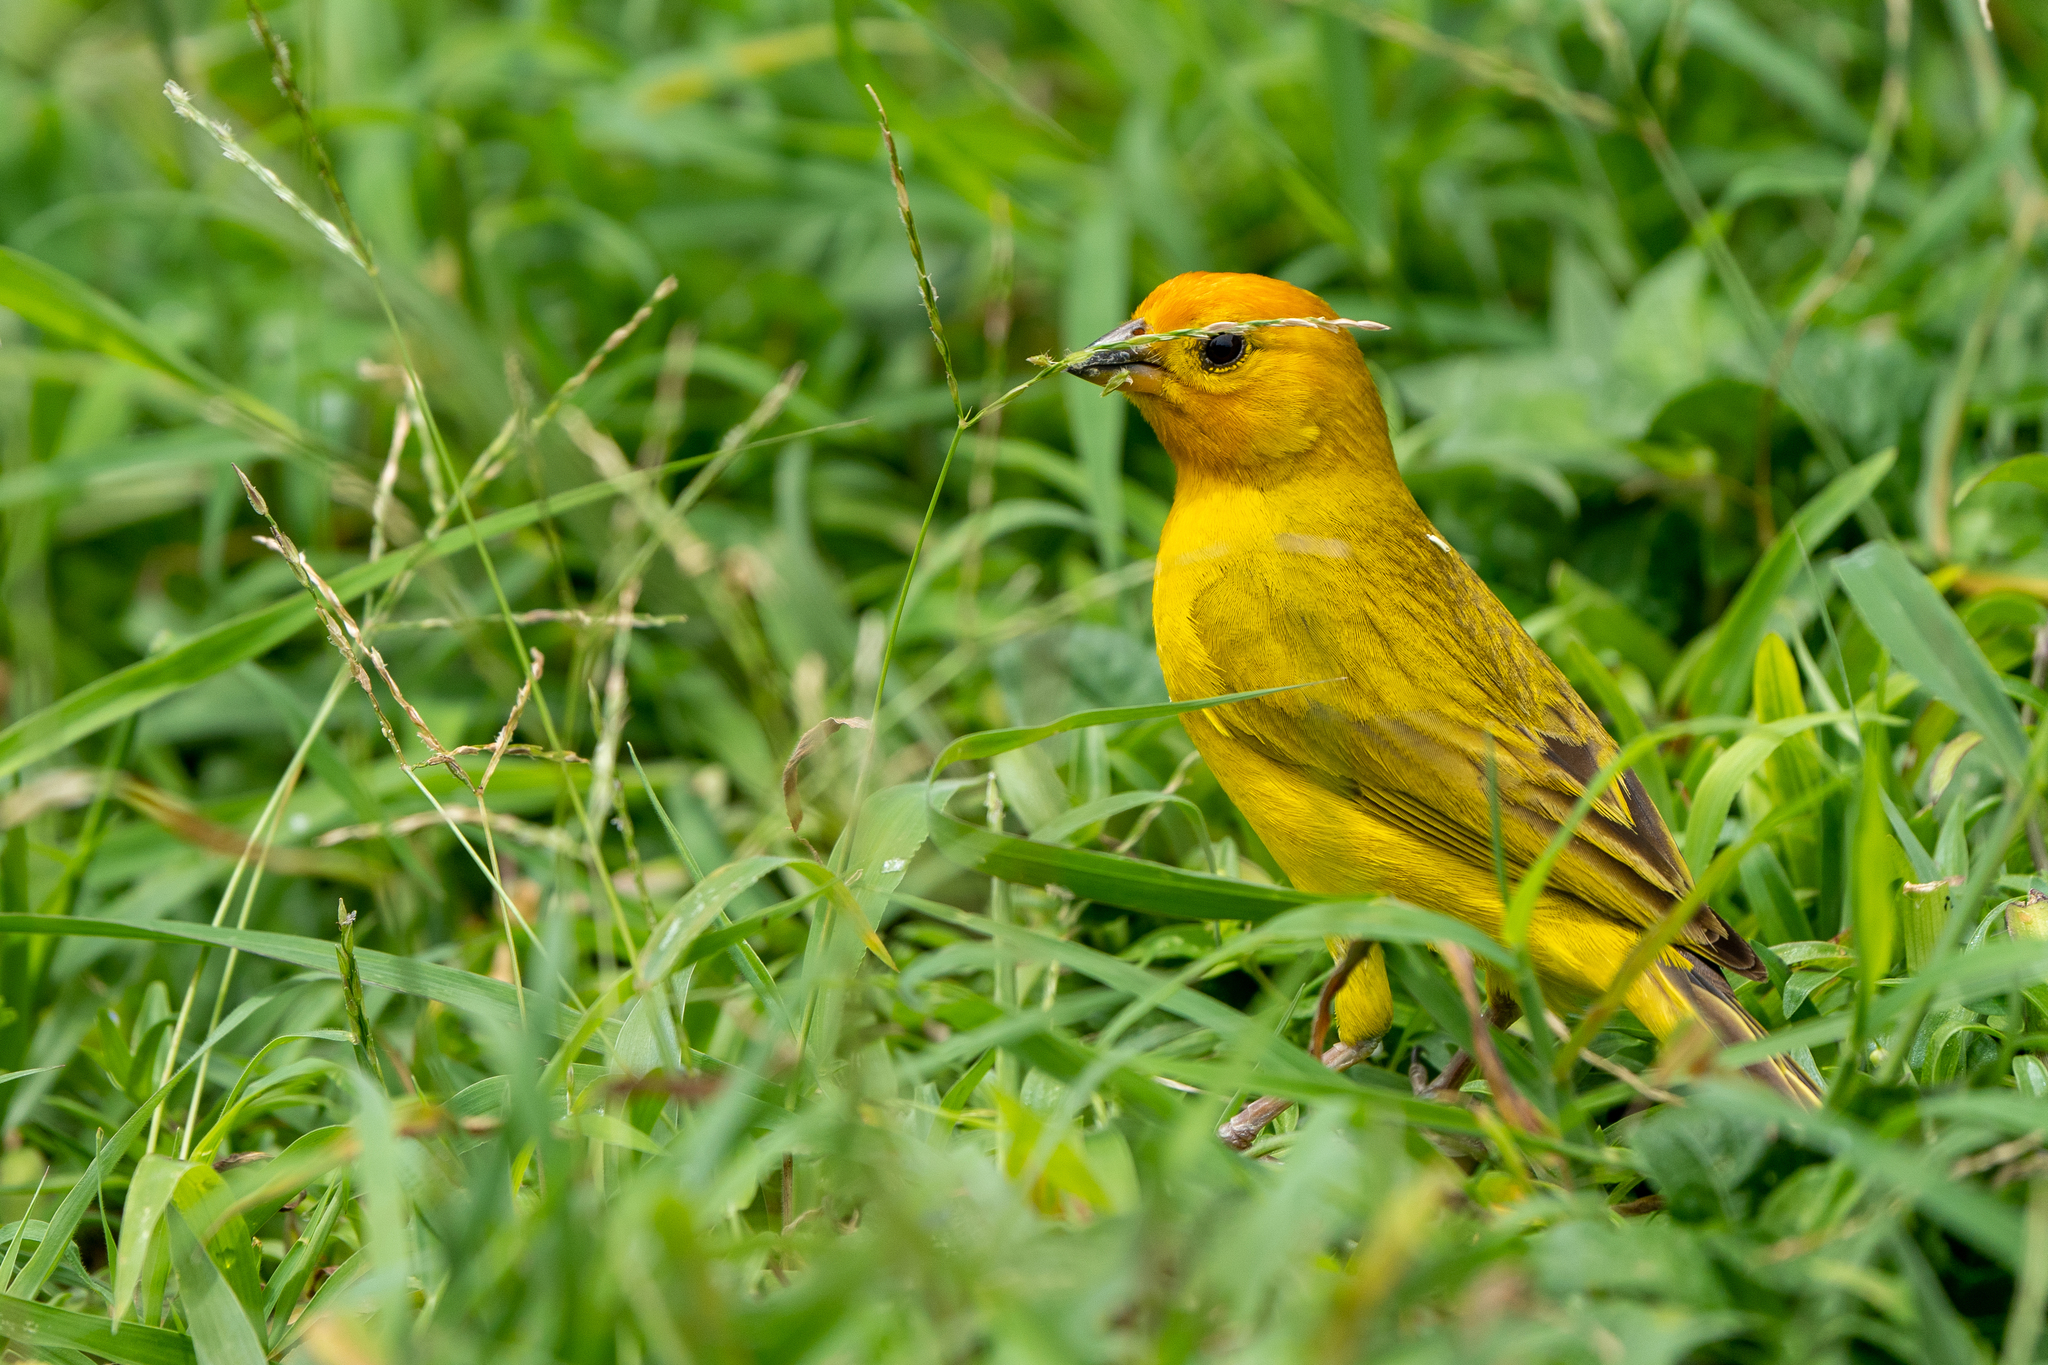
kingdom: Animalia
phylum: Chordata
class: Aves
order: Passeriformes
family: Thraupidae
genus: Sicalis
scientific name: Sicalis flaveola
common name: Saffron finch
